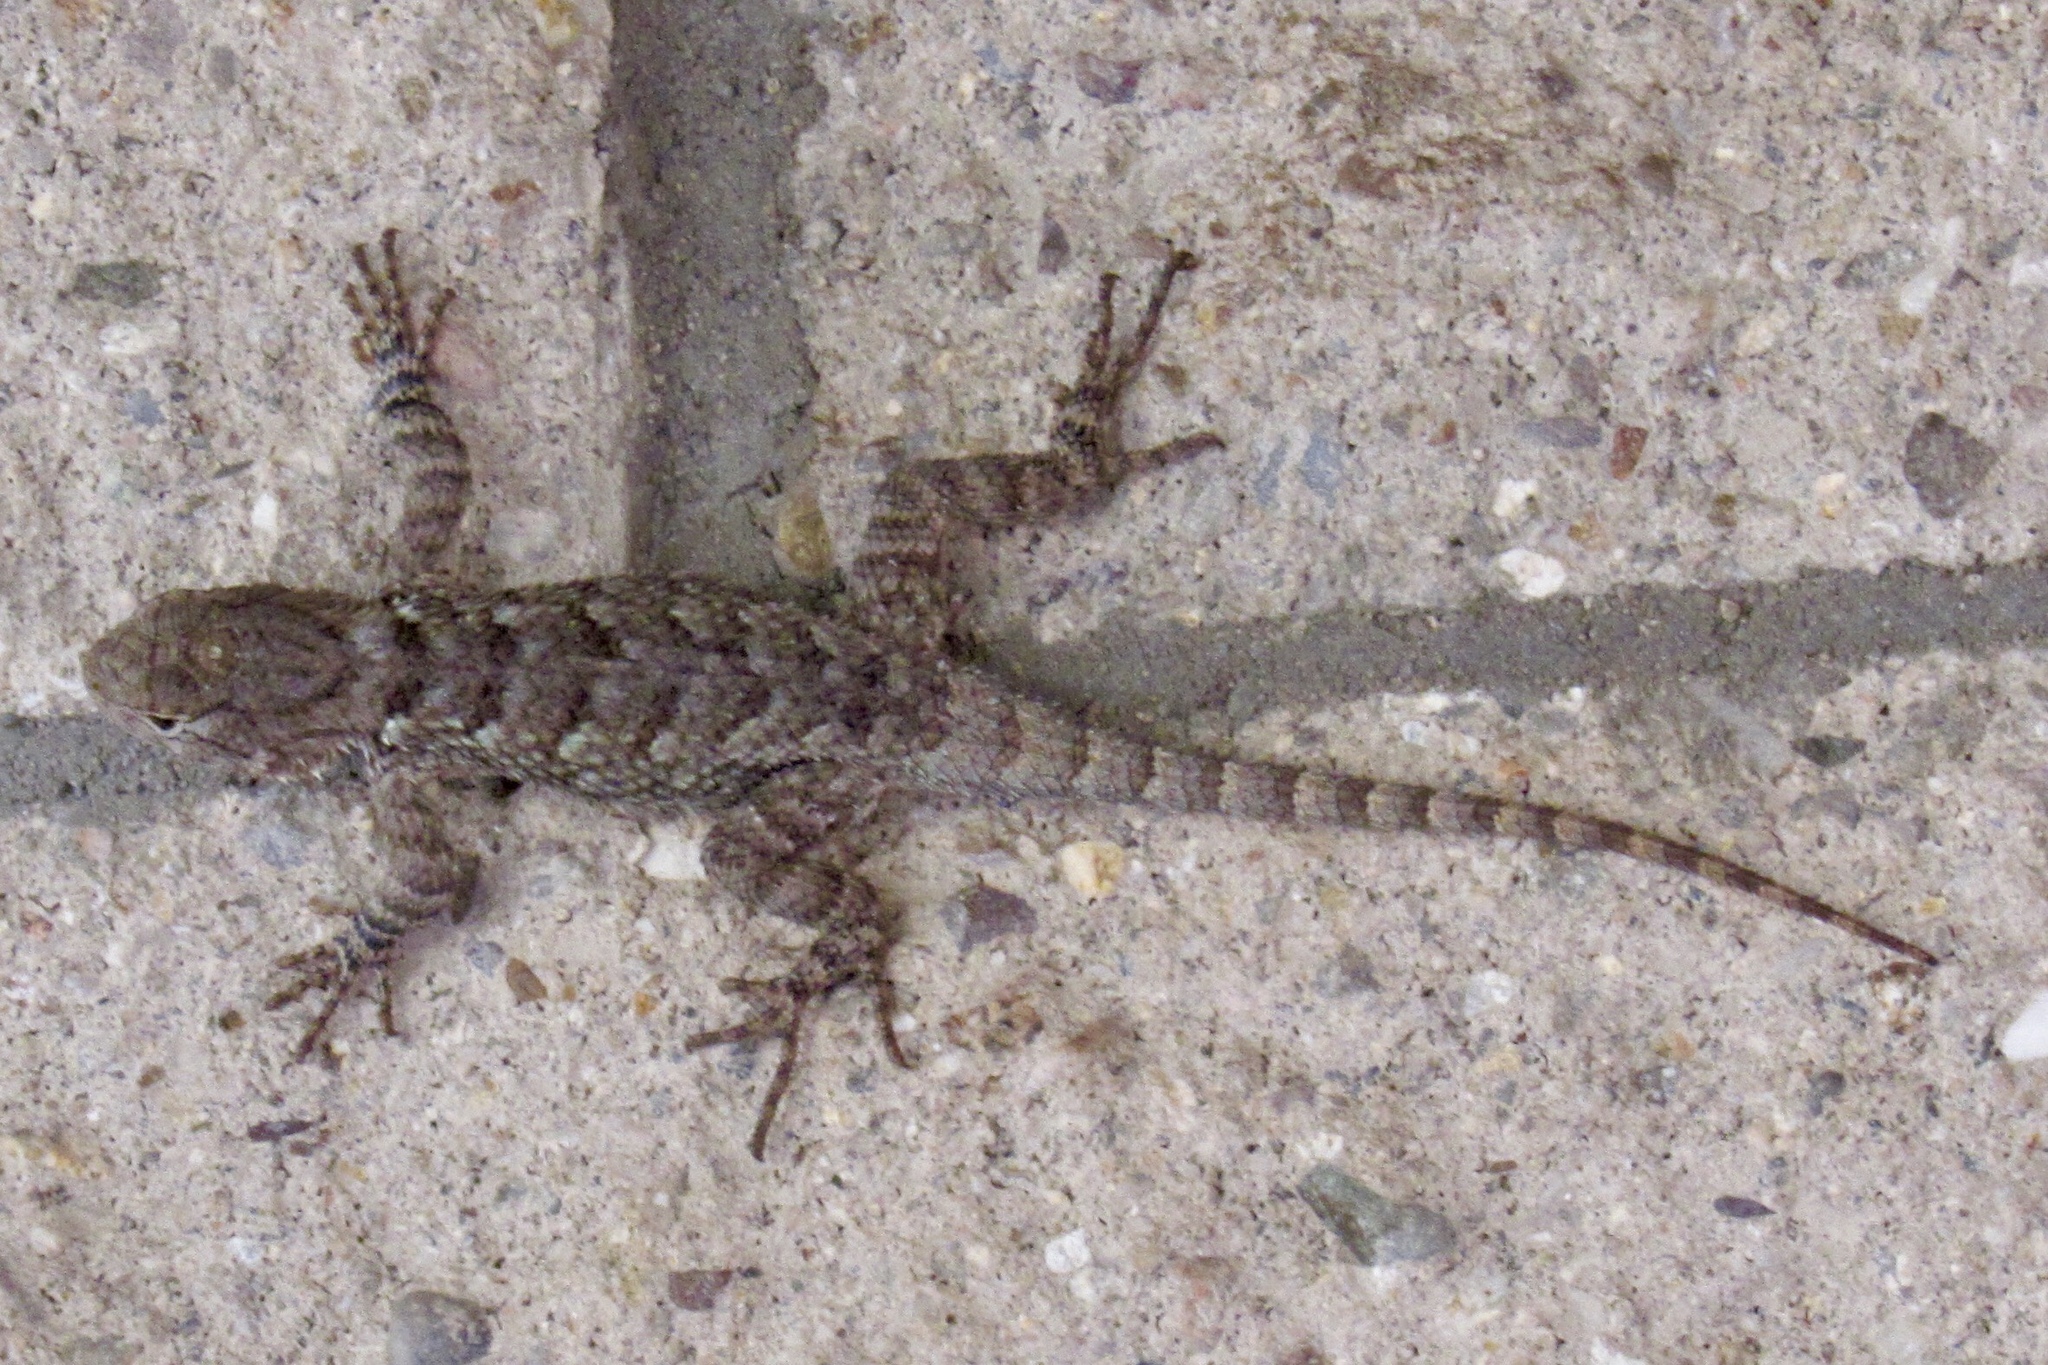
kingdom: Animalia
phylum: Chordata
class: Squamata
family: Phrynosomatidae
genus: Sceloporus
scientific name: Sceloporus clarkii
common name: Clark's spiny lizard
